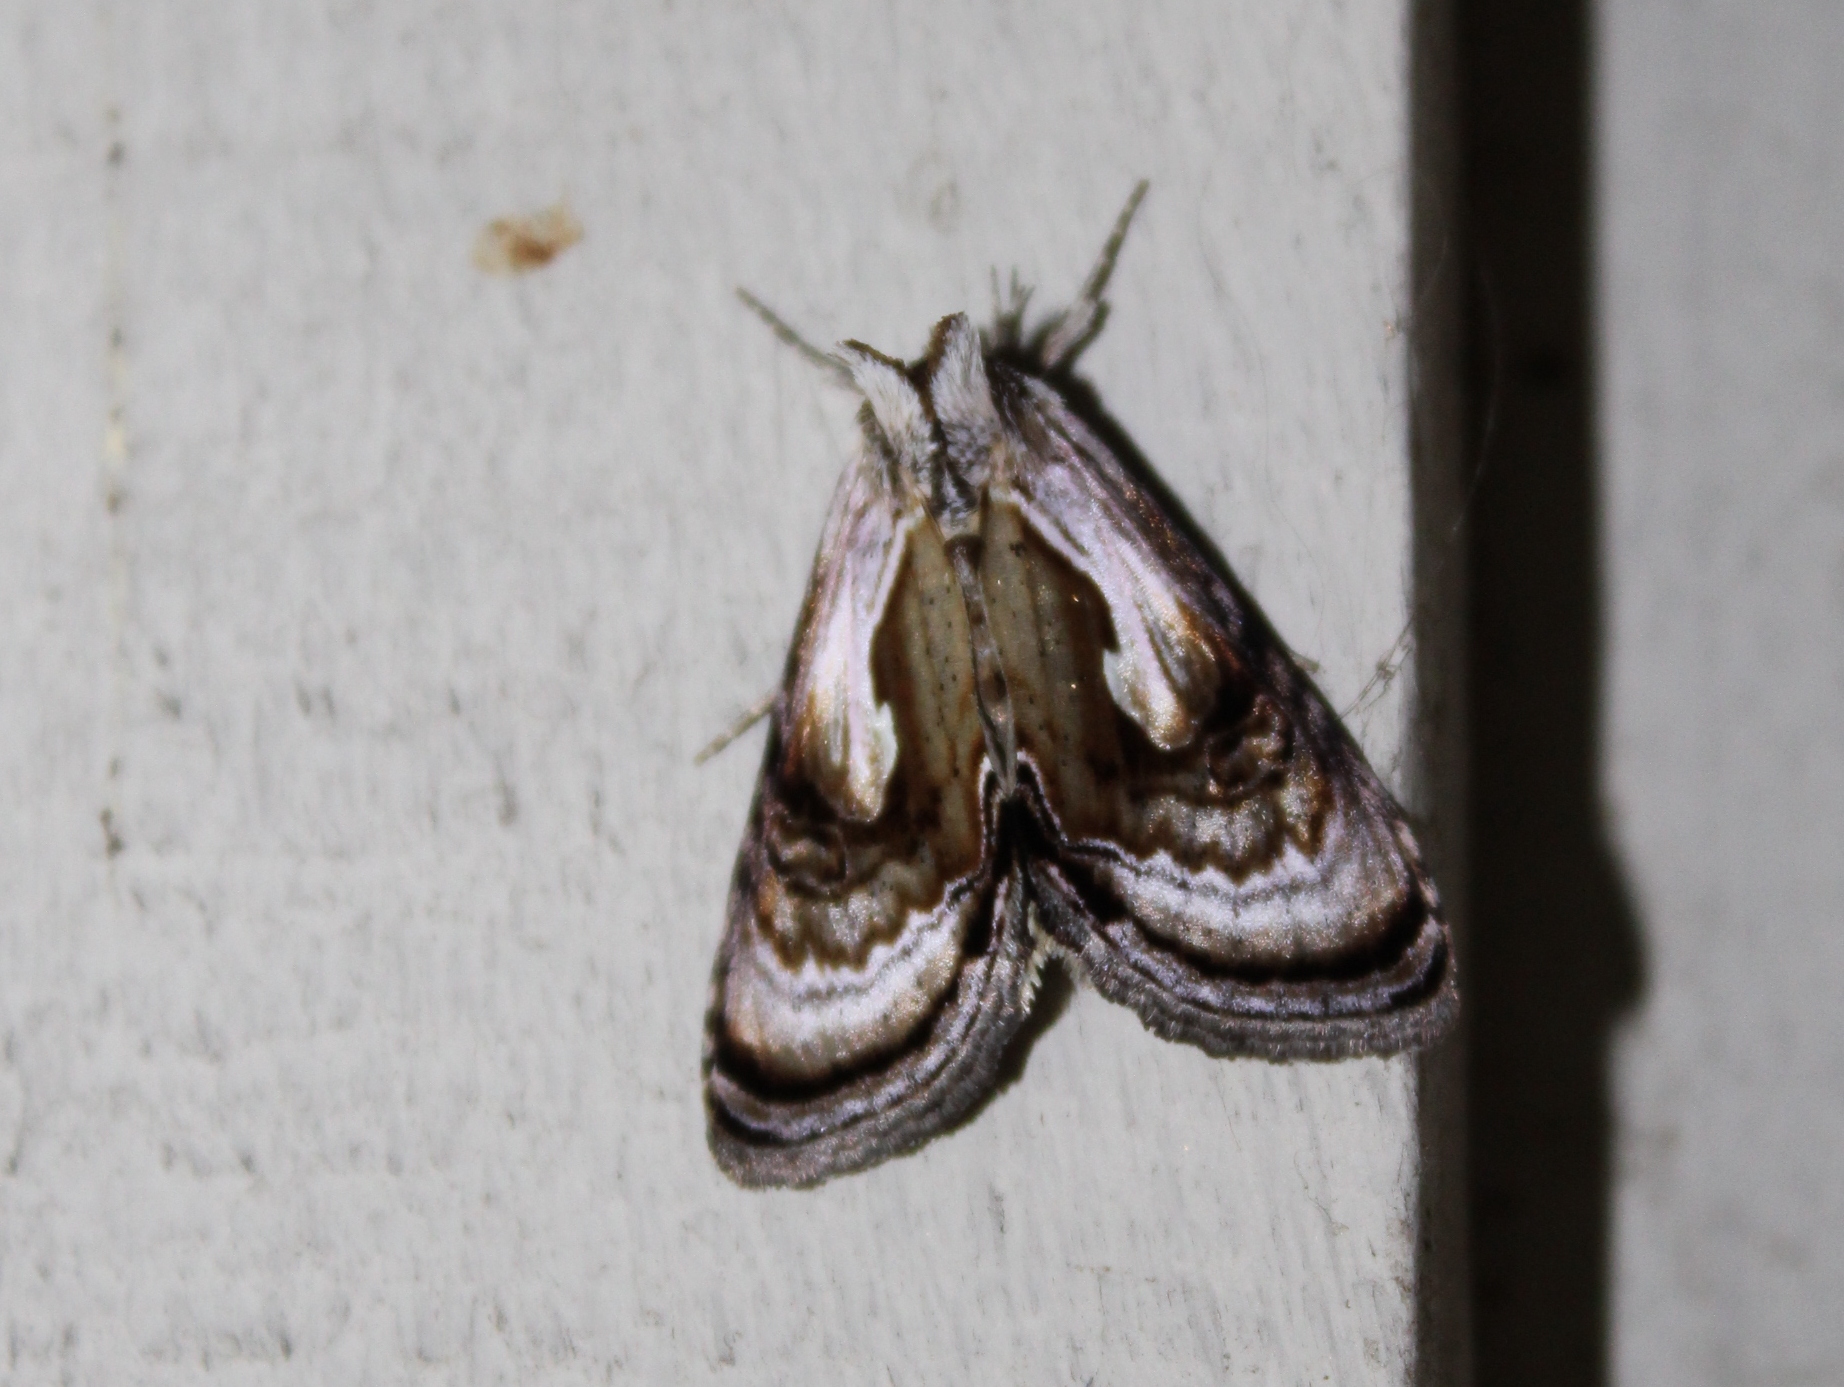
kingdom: Animalia
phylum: Arthropoda
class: Insecta
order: Lepidoptera
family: Noctuidae
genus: Chrysanympha
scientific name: Chrysanympha formosa
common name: Formosa looper moth
